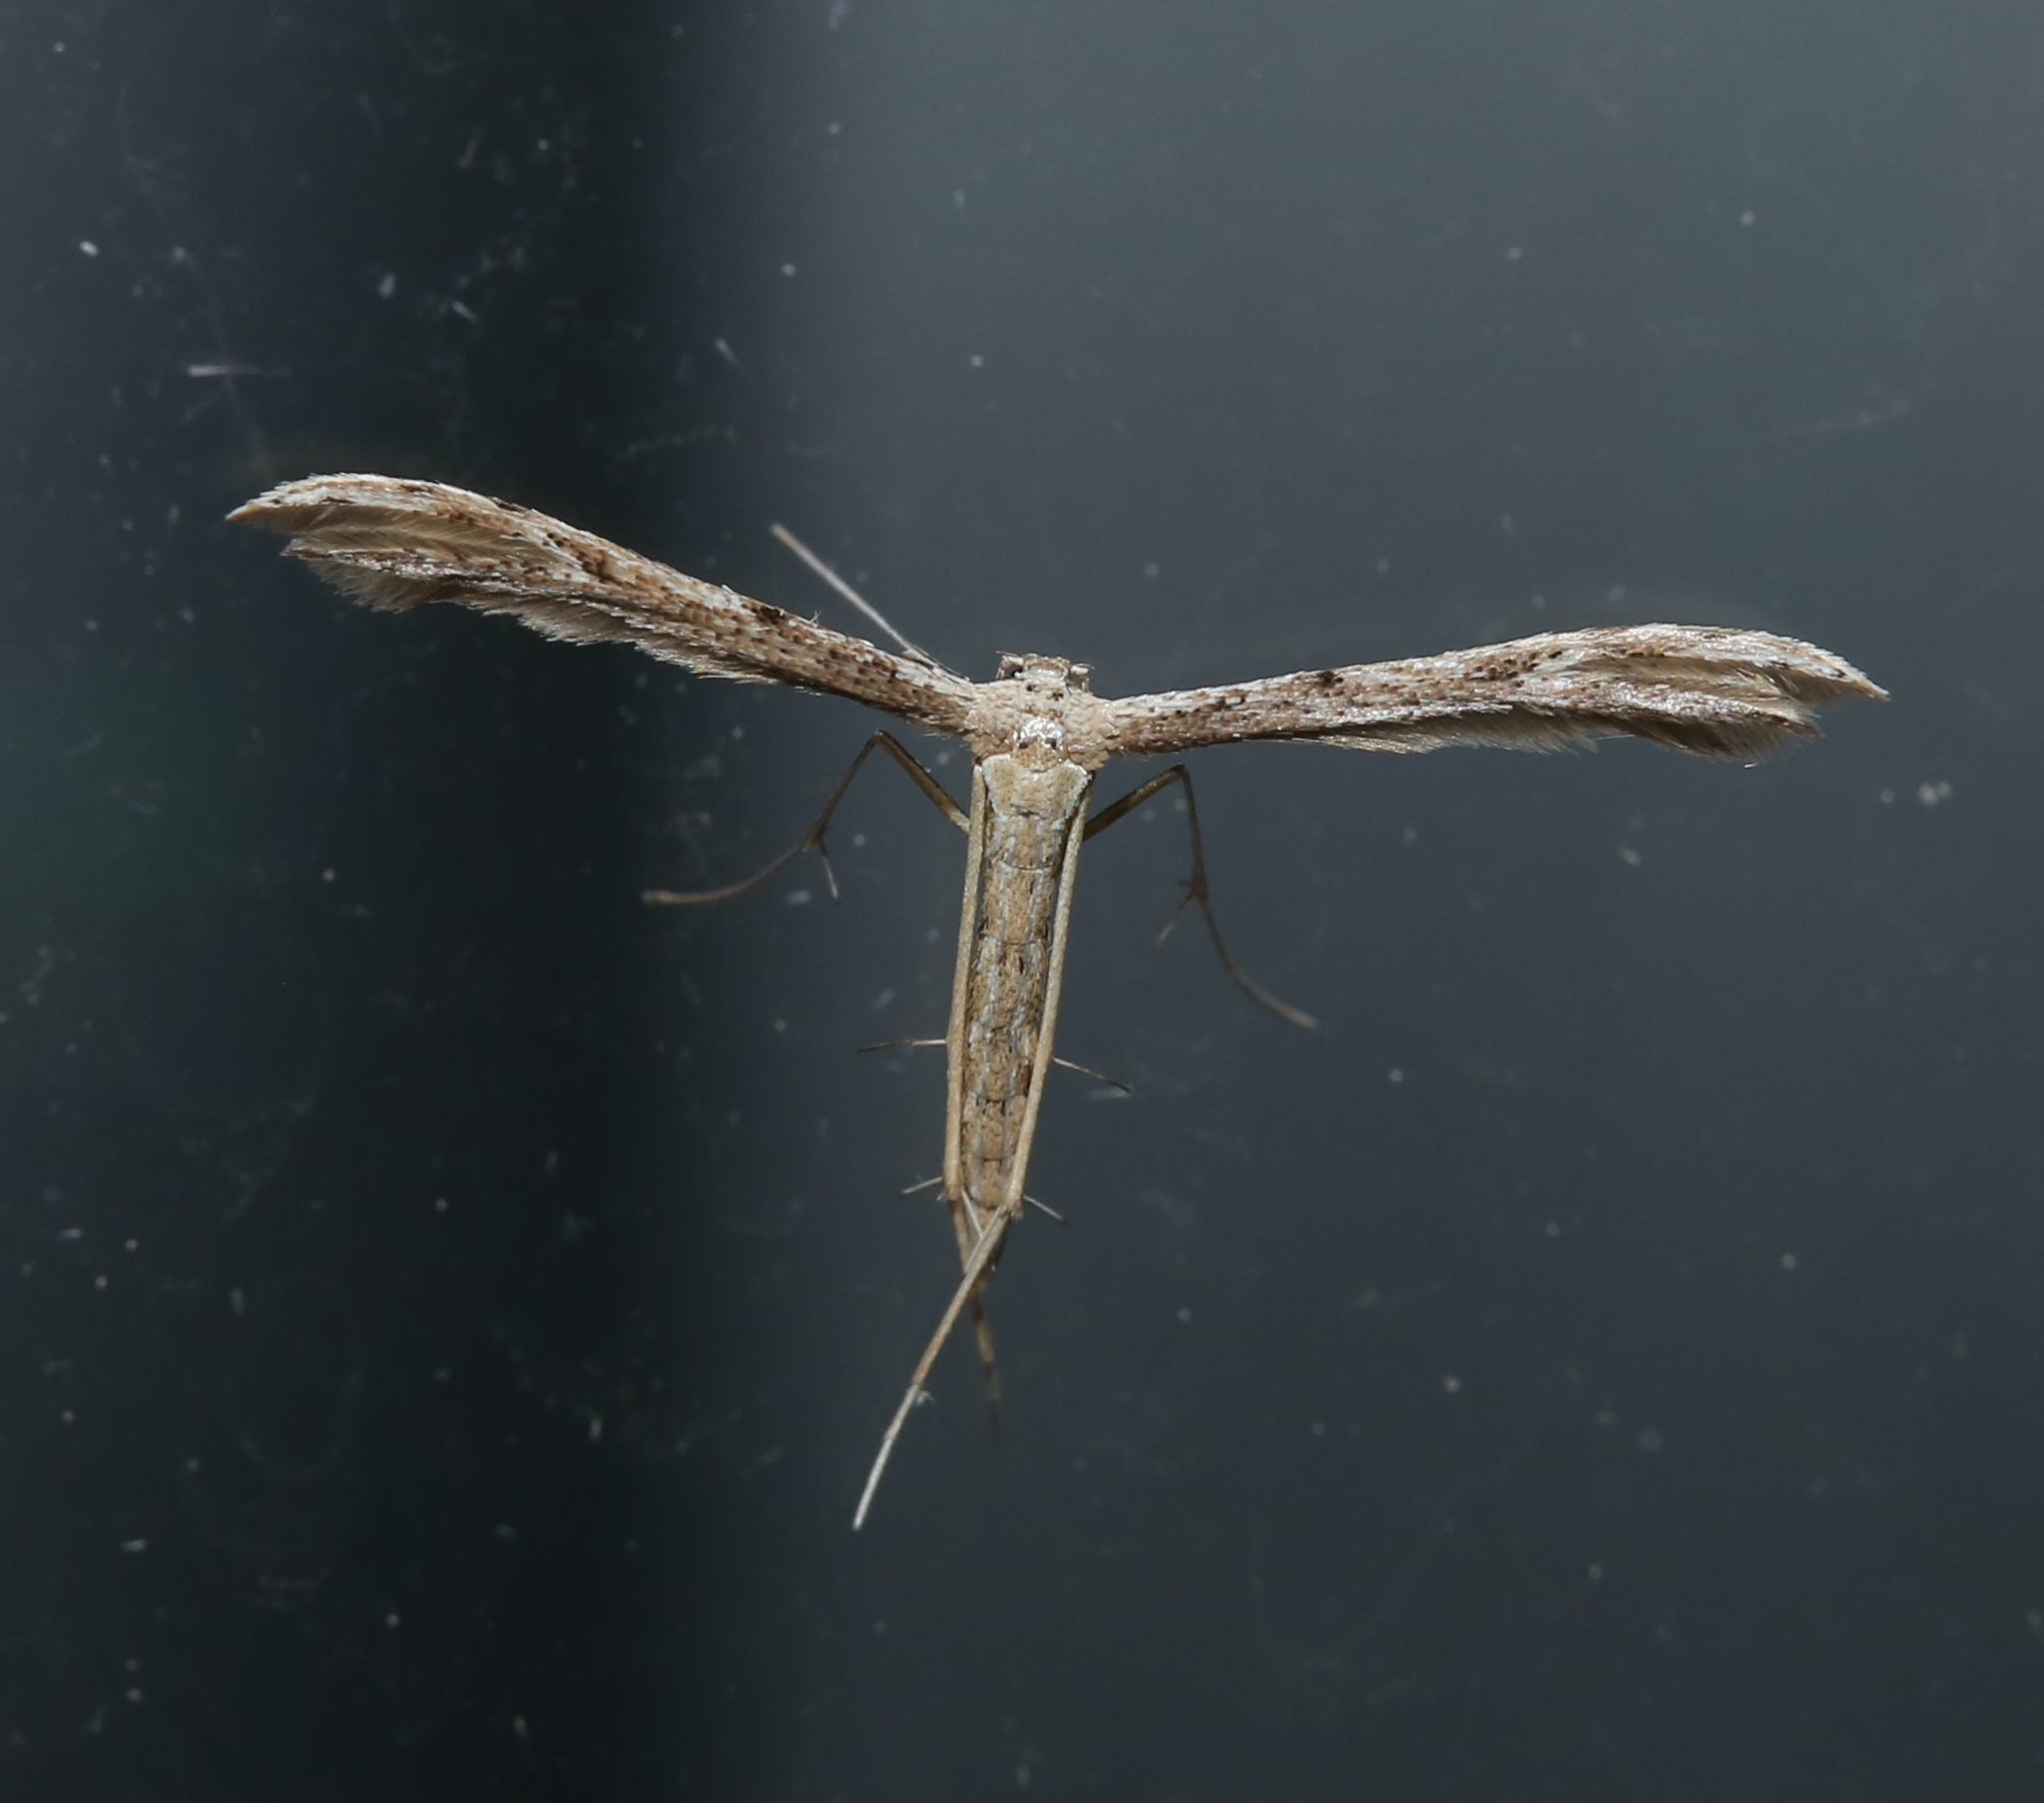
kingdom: Animalia
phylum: Arthropoda
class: Insecta
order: Lepidoptera
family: Pterophoridae
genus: Pselnophorus
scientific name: Pselnophorus belfragei
